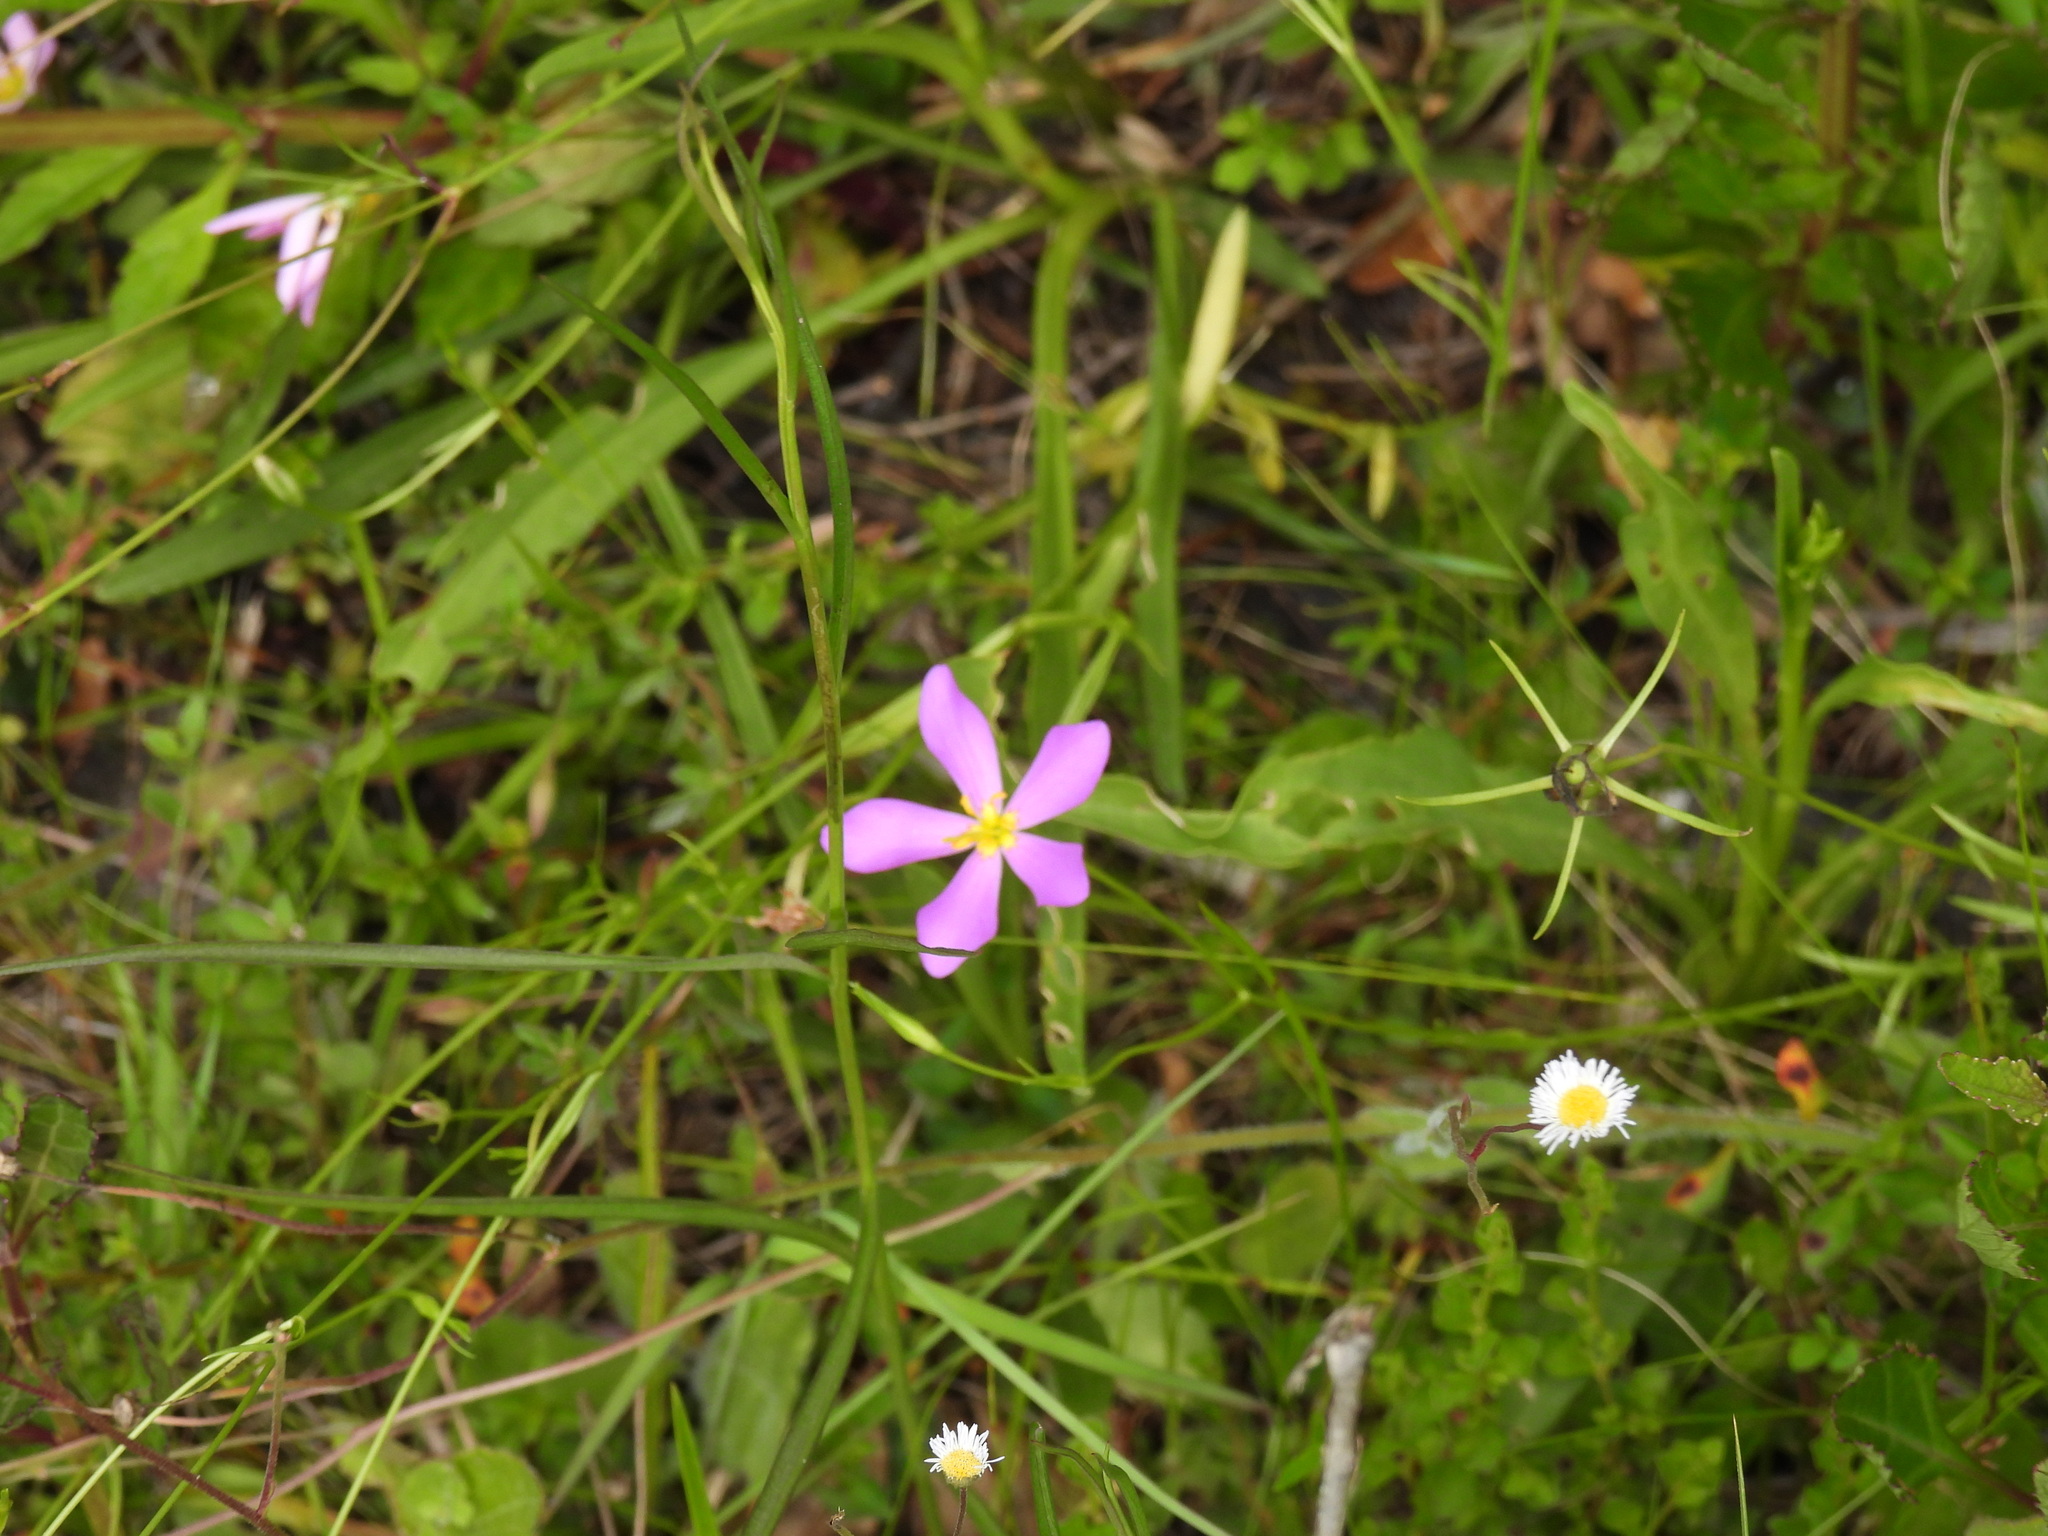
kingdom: Plantae
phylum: Tracheophyta
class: Magnoliopsida
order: Gentianales
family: Gentianaceae
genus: Sabatia
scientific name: Sabatia grandiflora
